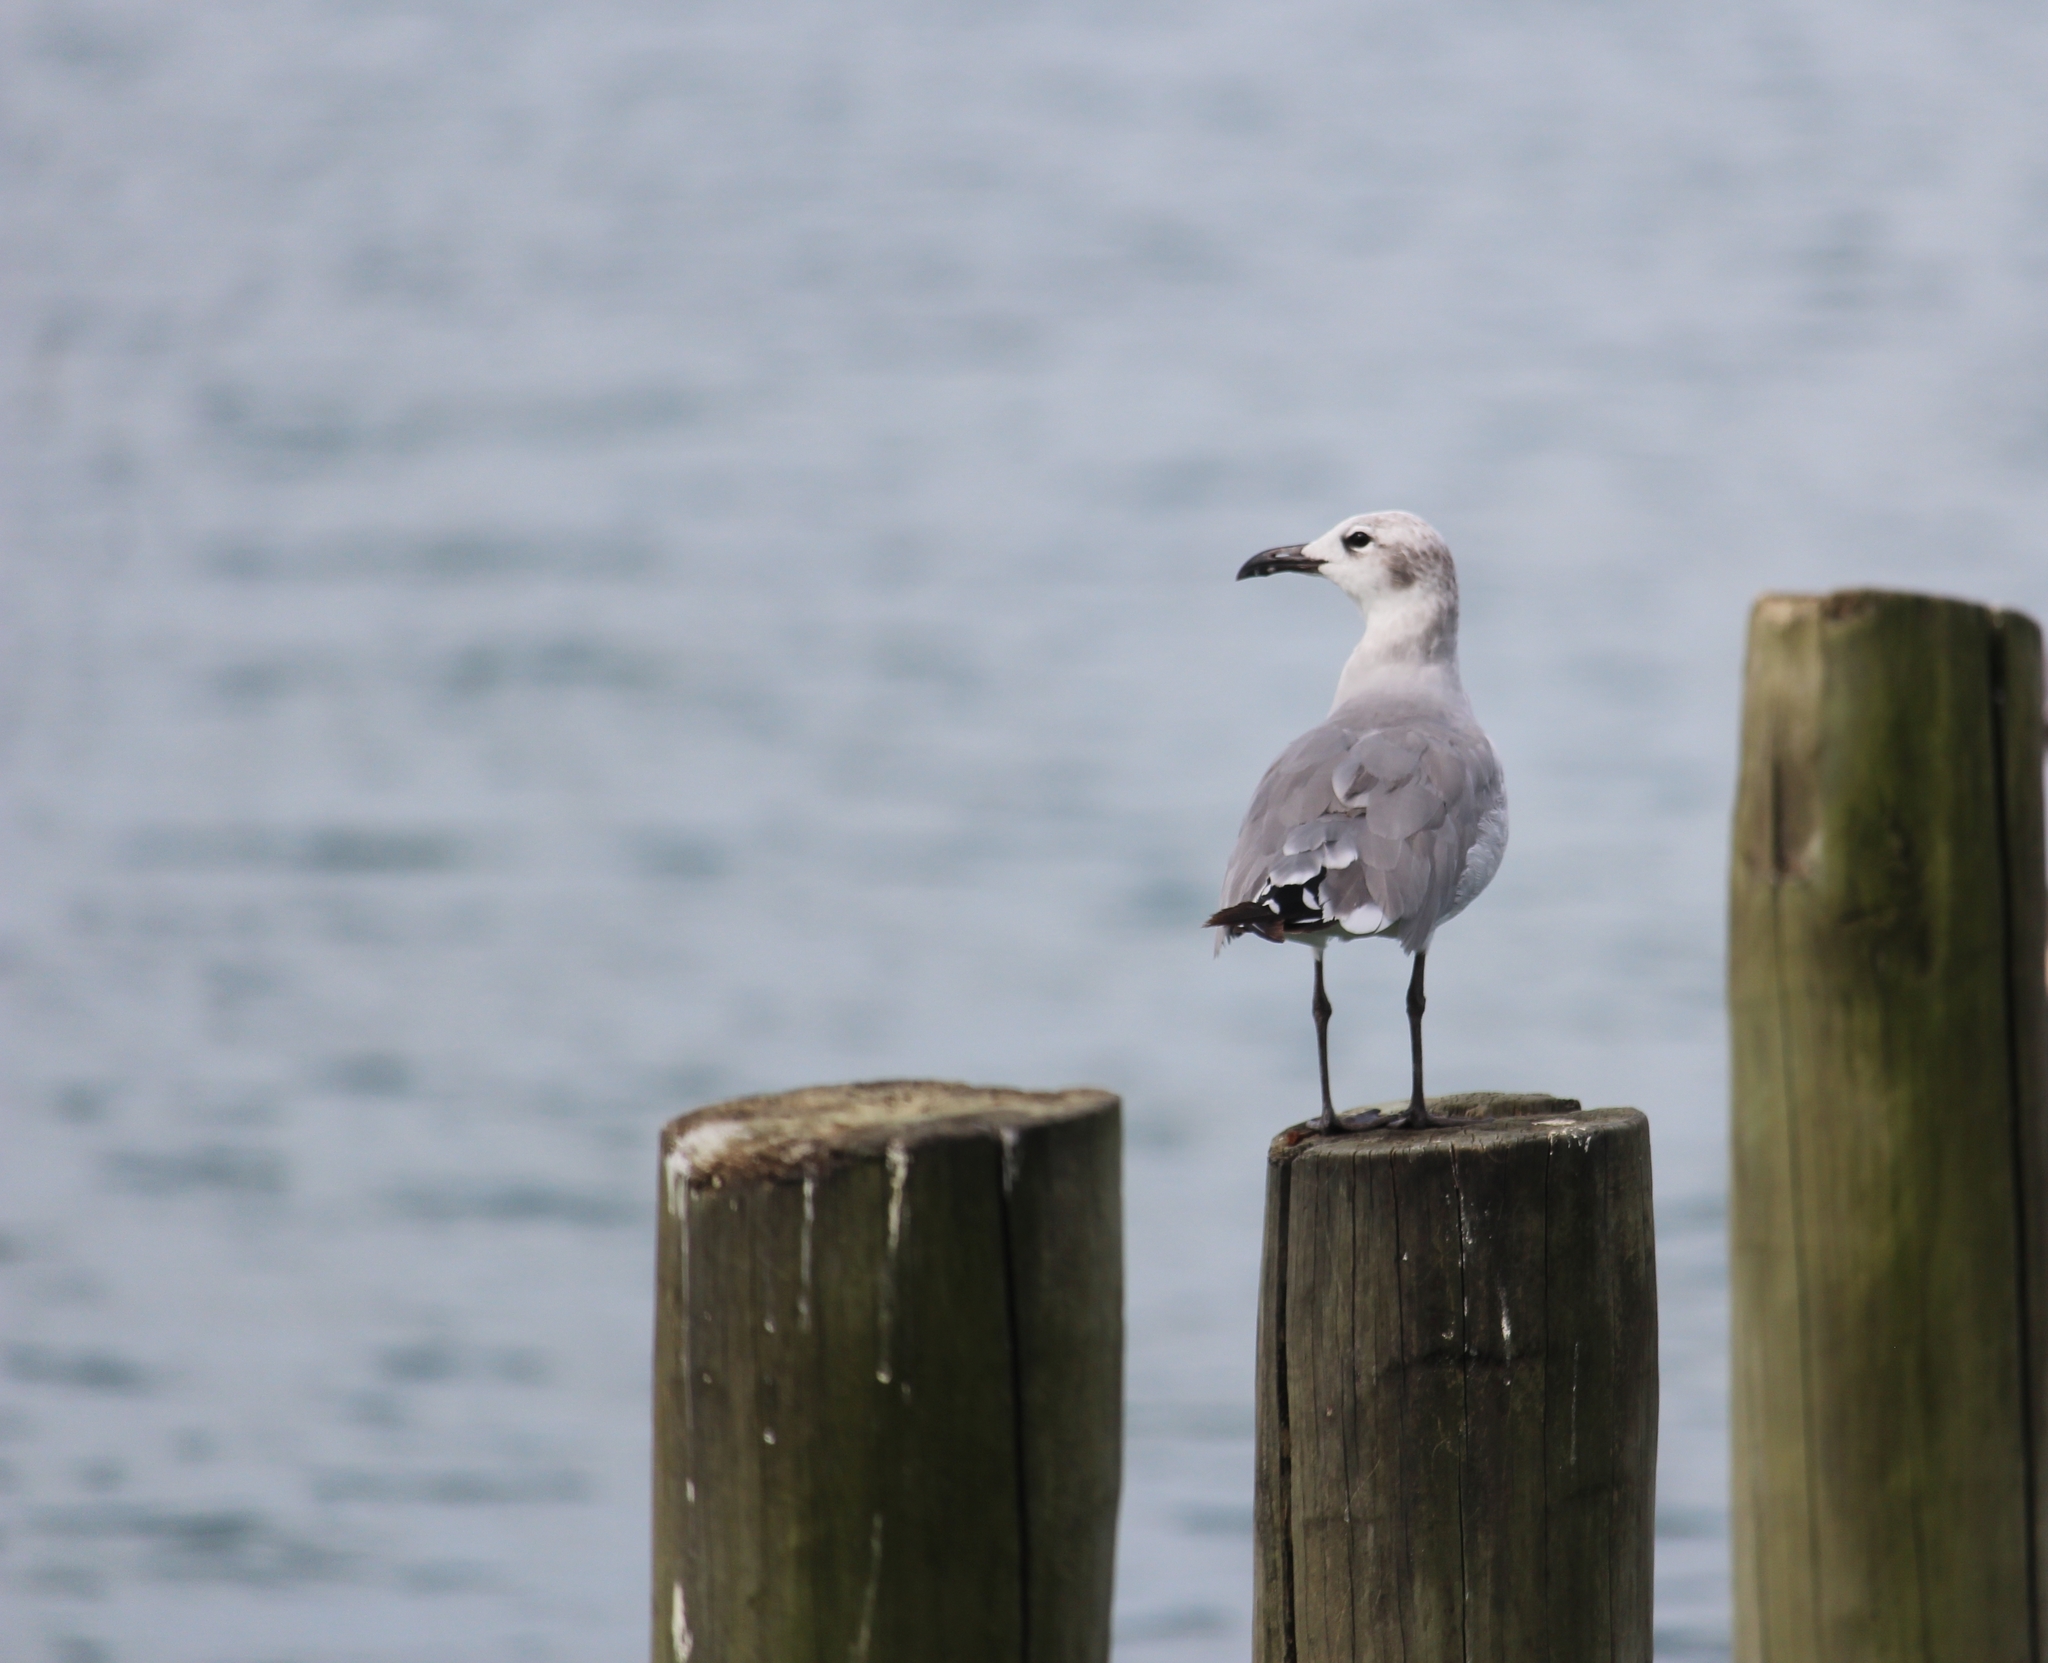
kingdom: Animalia
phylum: Chordata
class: Aves
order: Charadriiformes
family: Laridae
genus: Leucophaeus
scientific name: Leucophaeus atricilla
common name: Laughing gull
